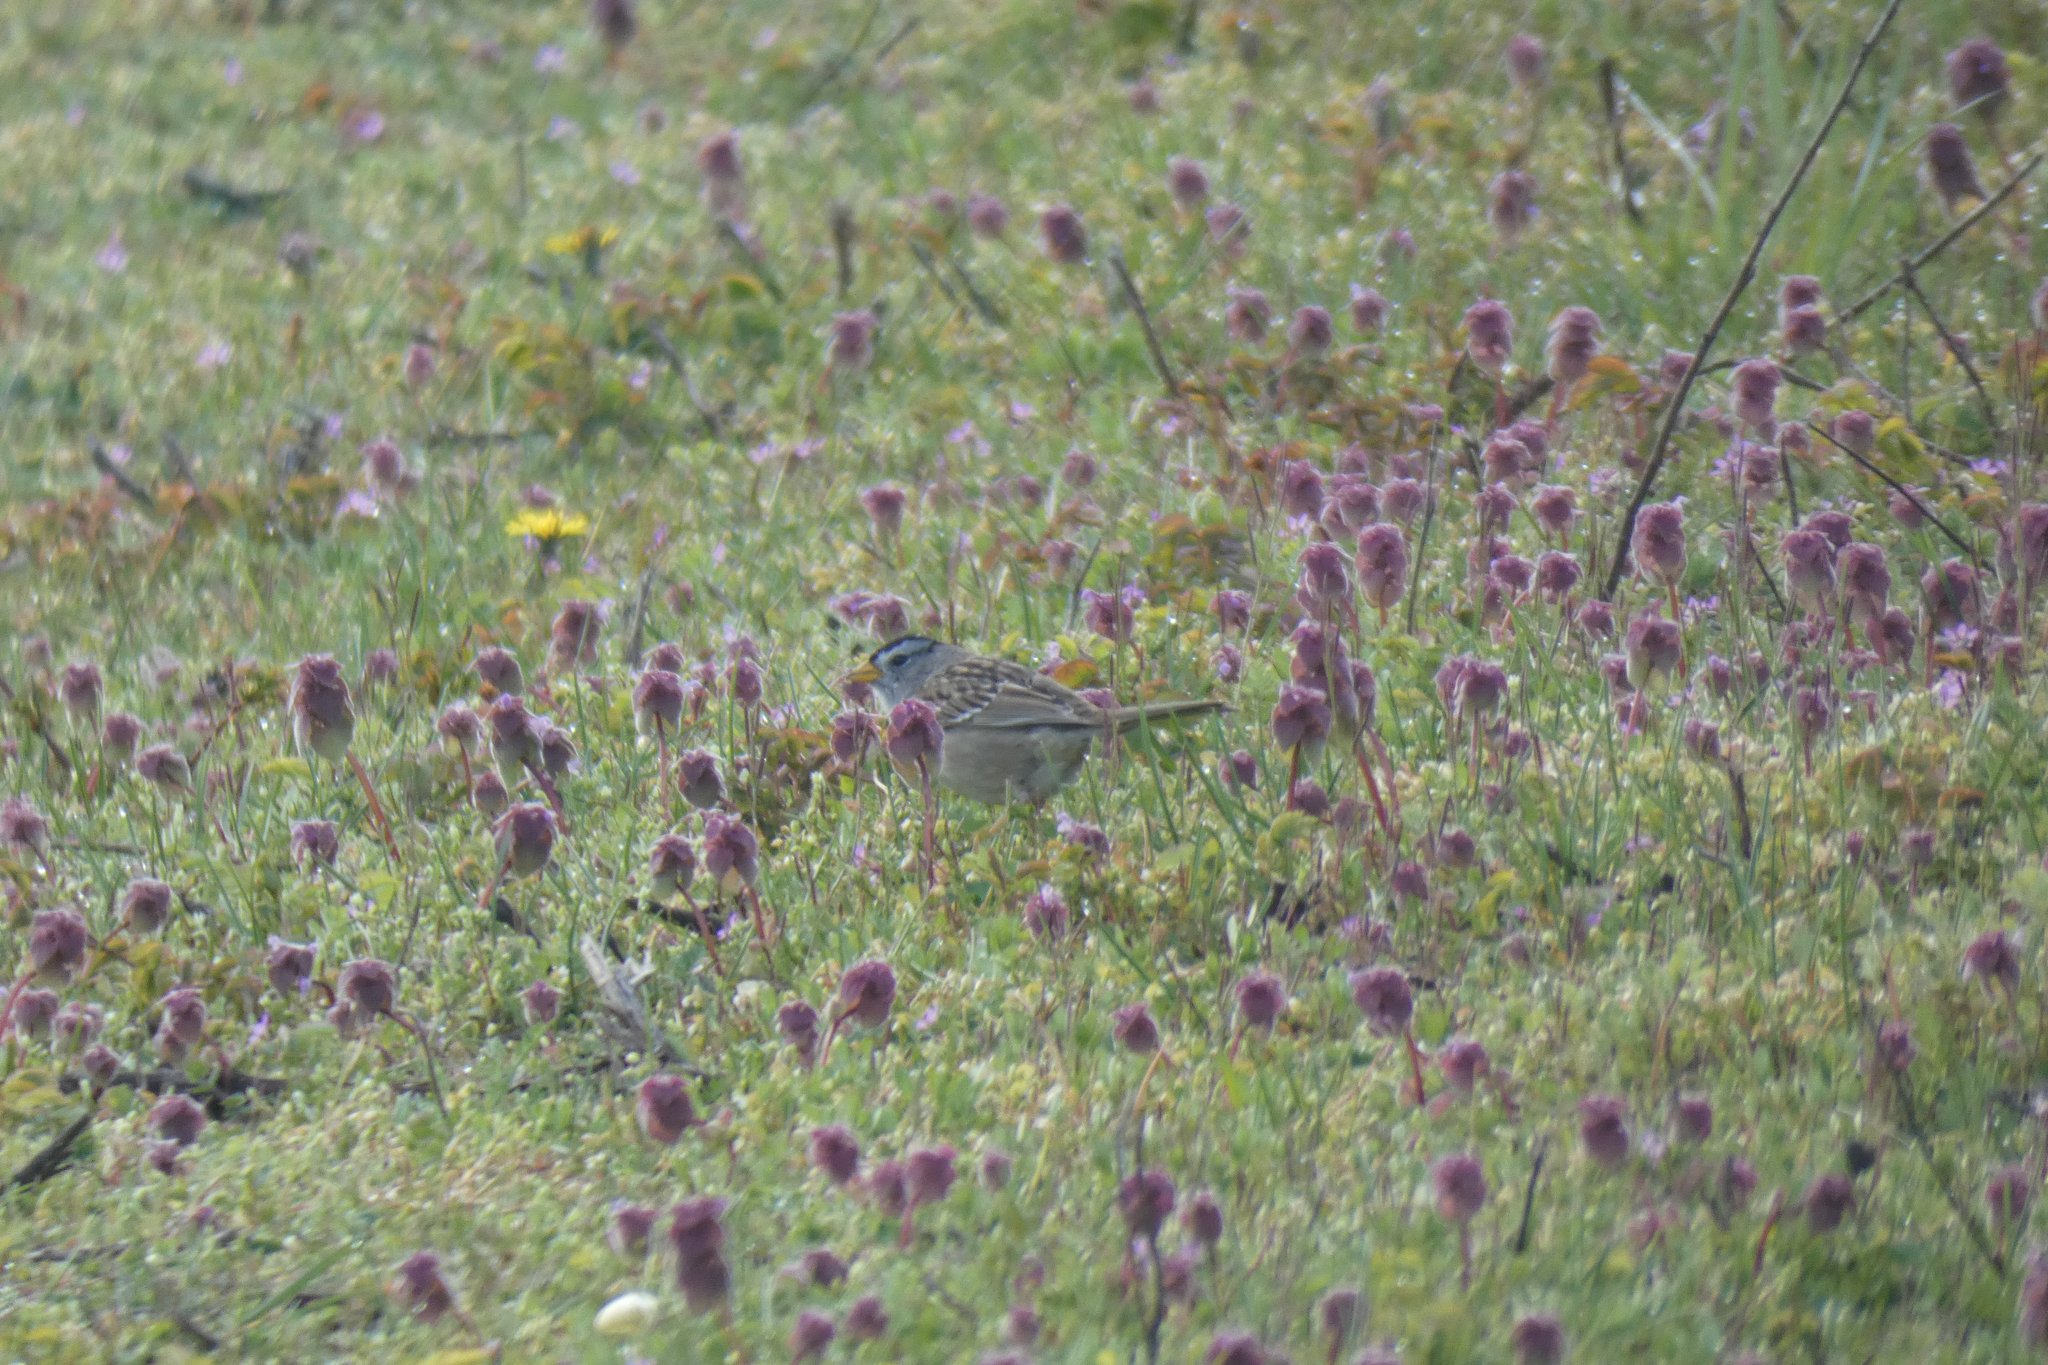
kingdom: Animalia
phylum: Chordata
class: Aves
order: Passeriformes
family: Passerellidae
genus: Zonotrichia
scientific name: Zonotrichia leucophrys
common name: White-crowned sparrow
